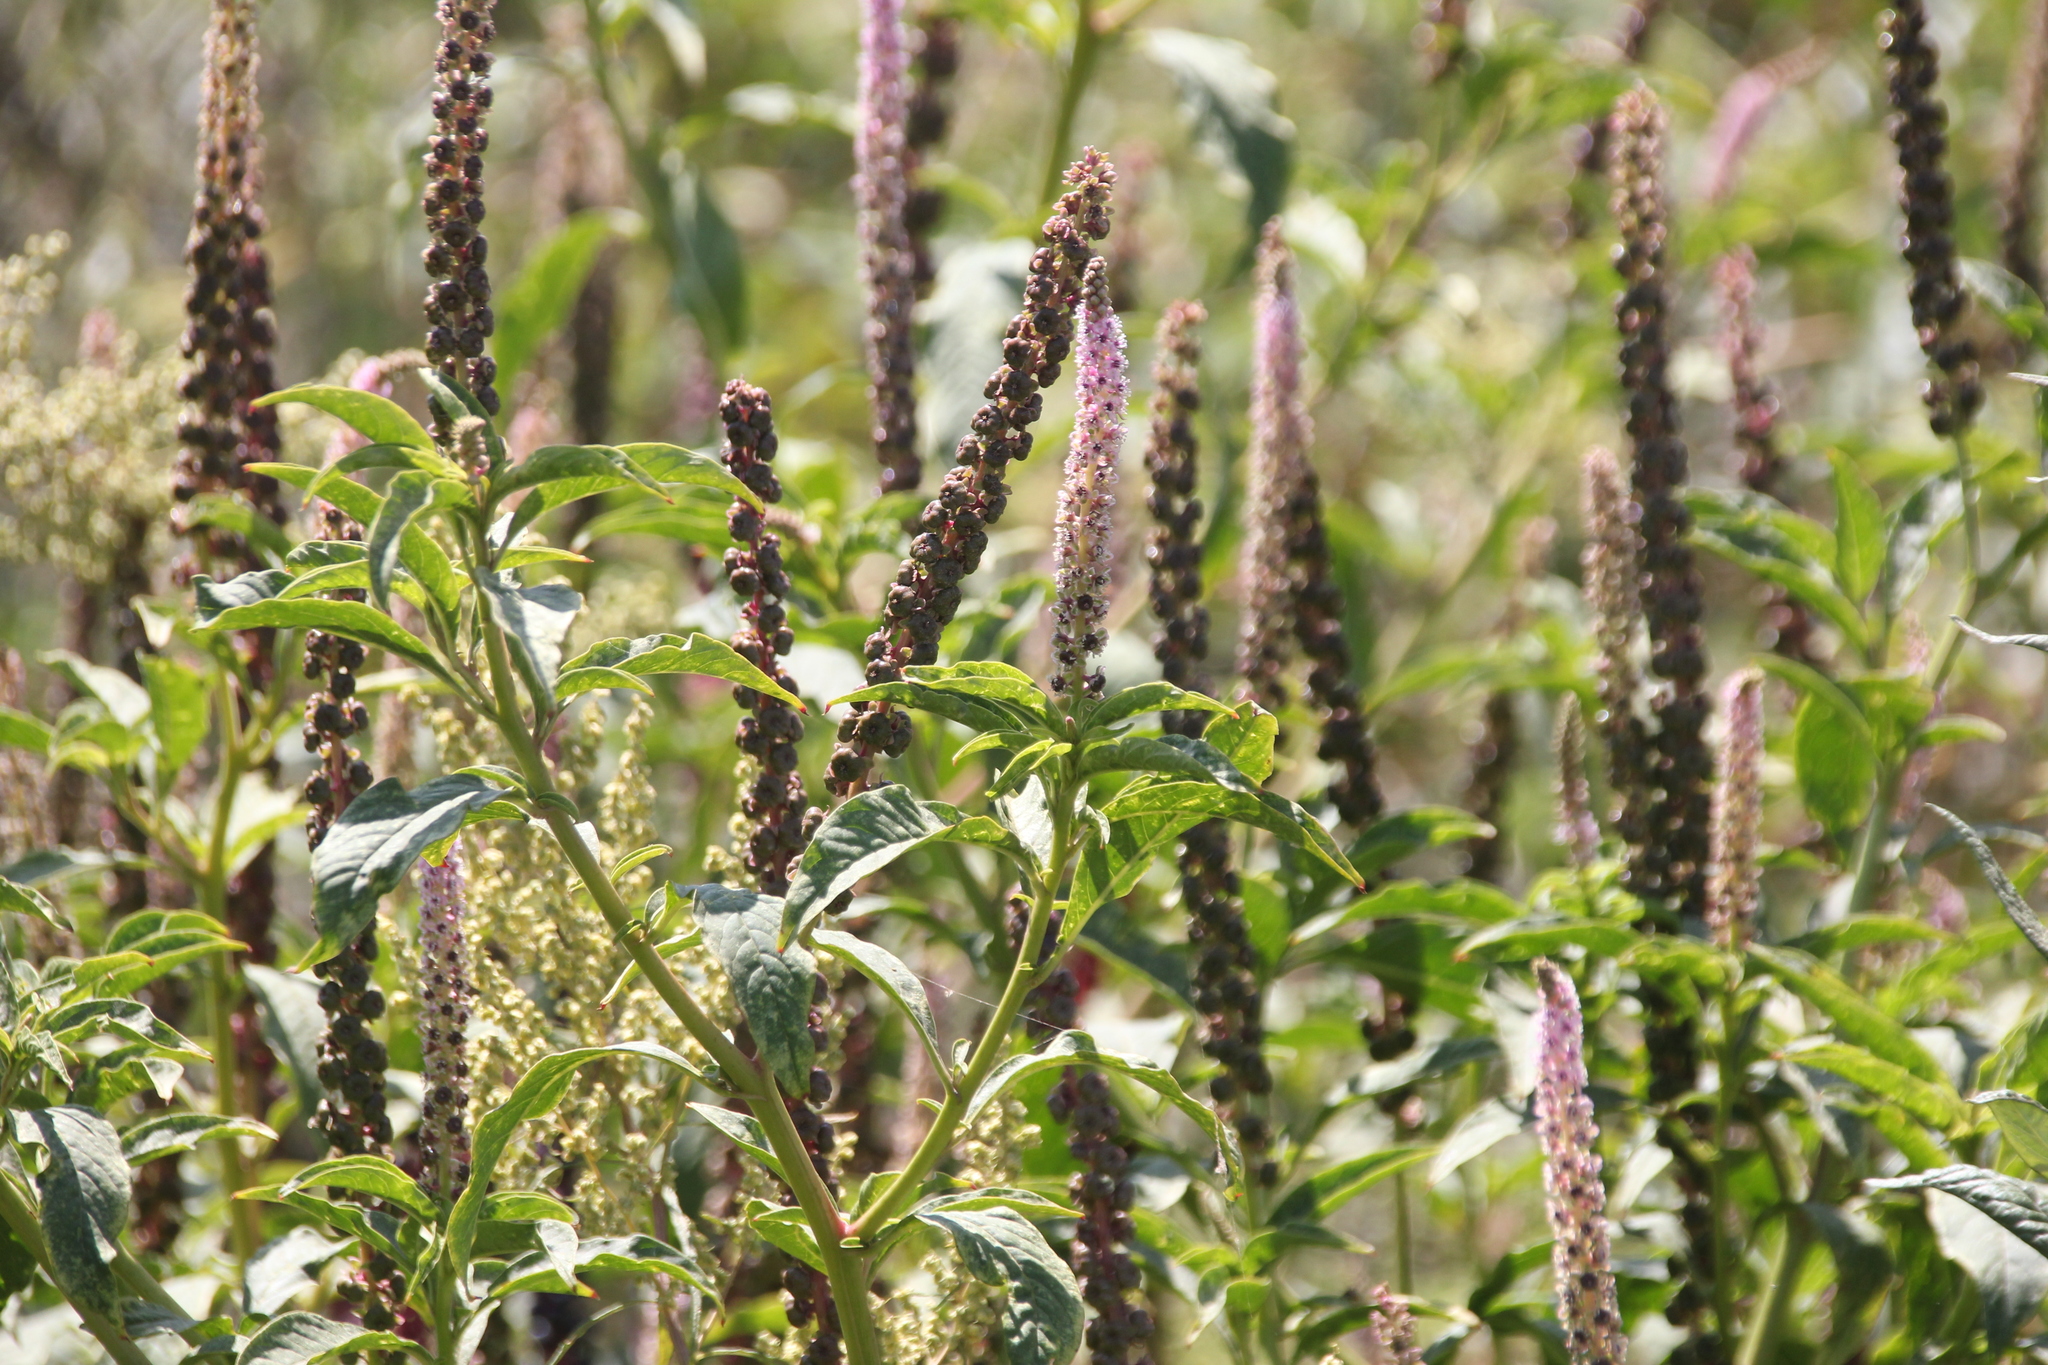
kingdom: Plantae
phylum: Tracheophyta
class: Magnoliopsida
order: Caryophyllales
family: Phytolaccaceae
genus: Phytolacca
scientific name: Phytolacca icosandra
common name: Button pokeweed
